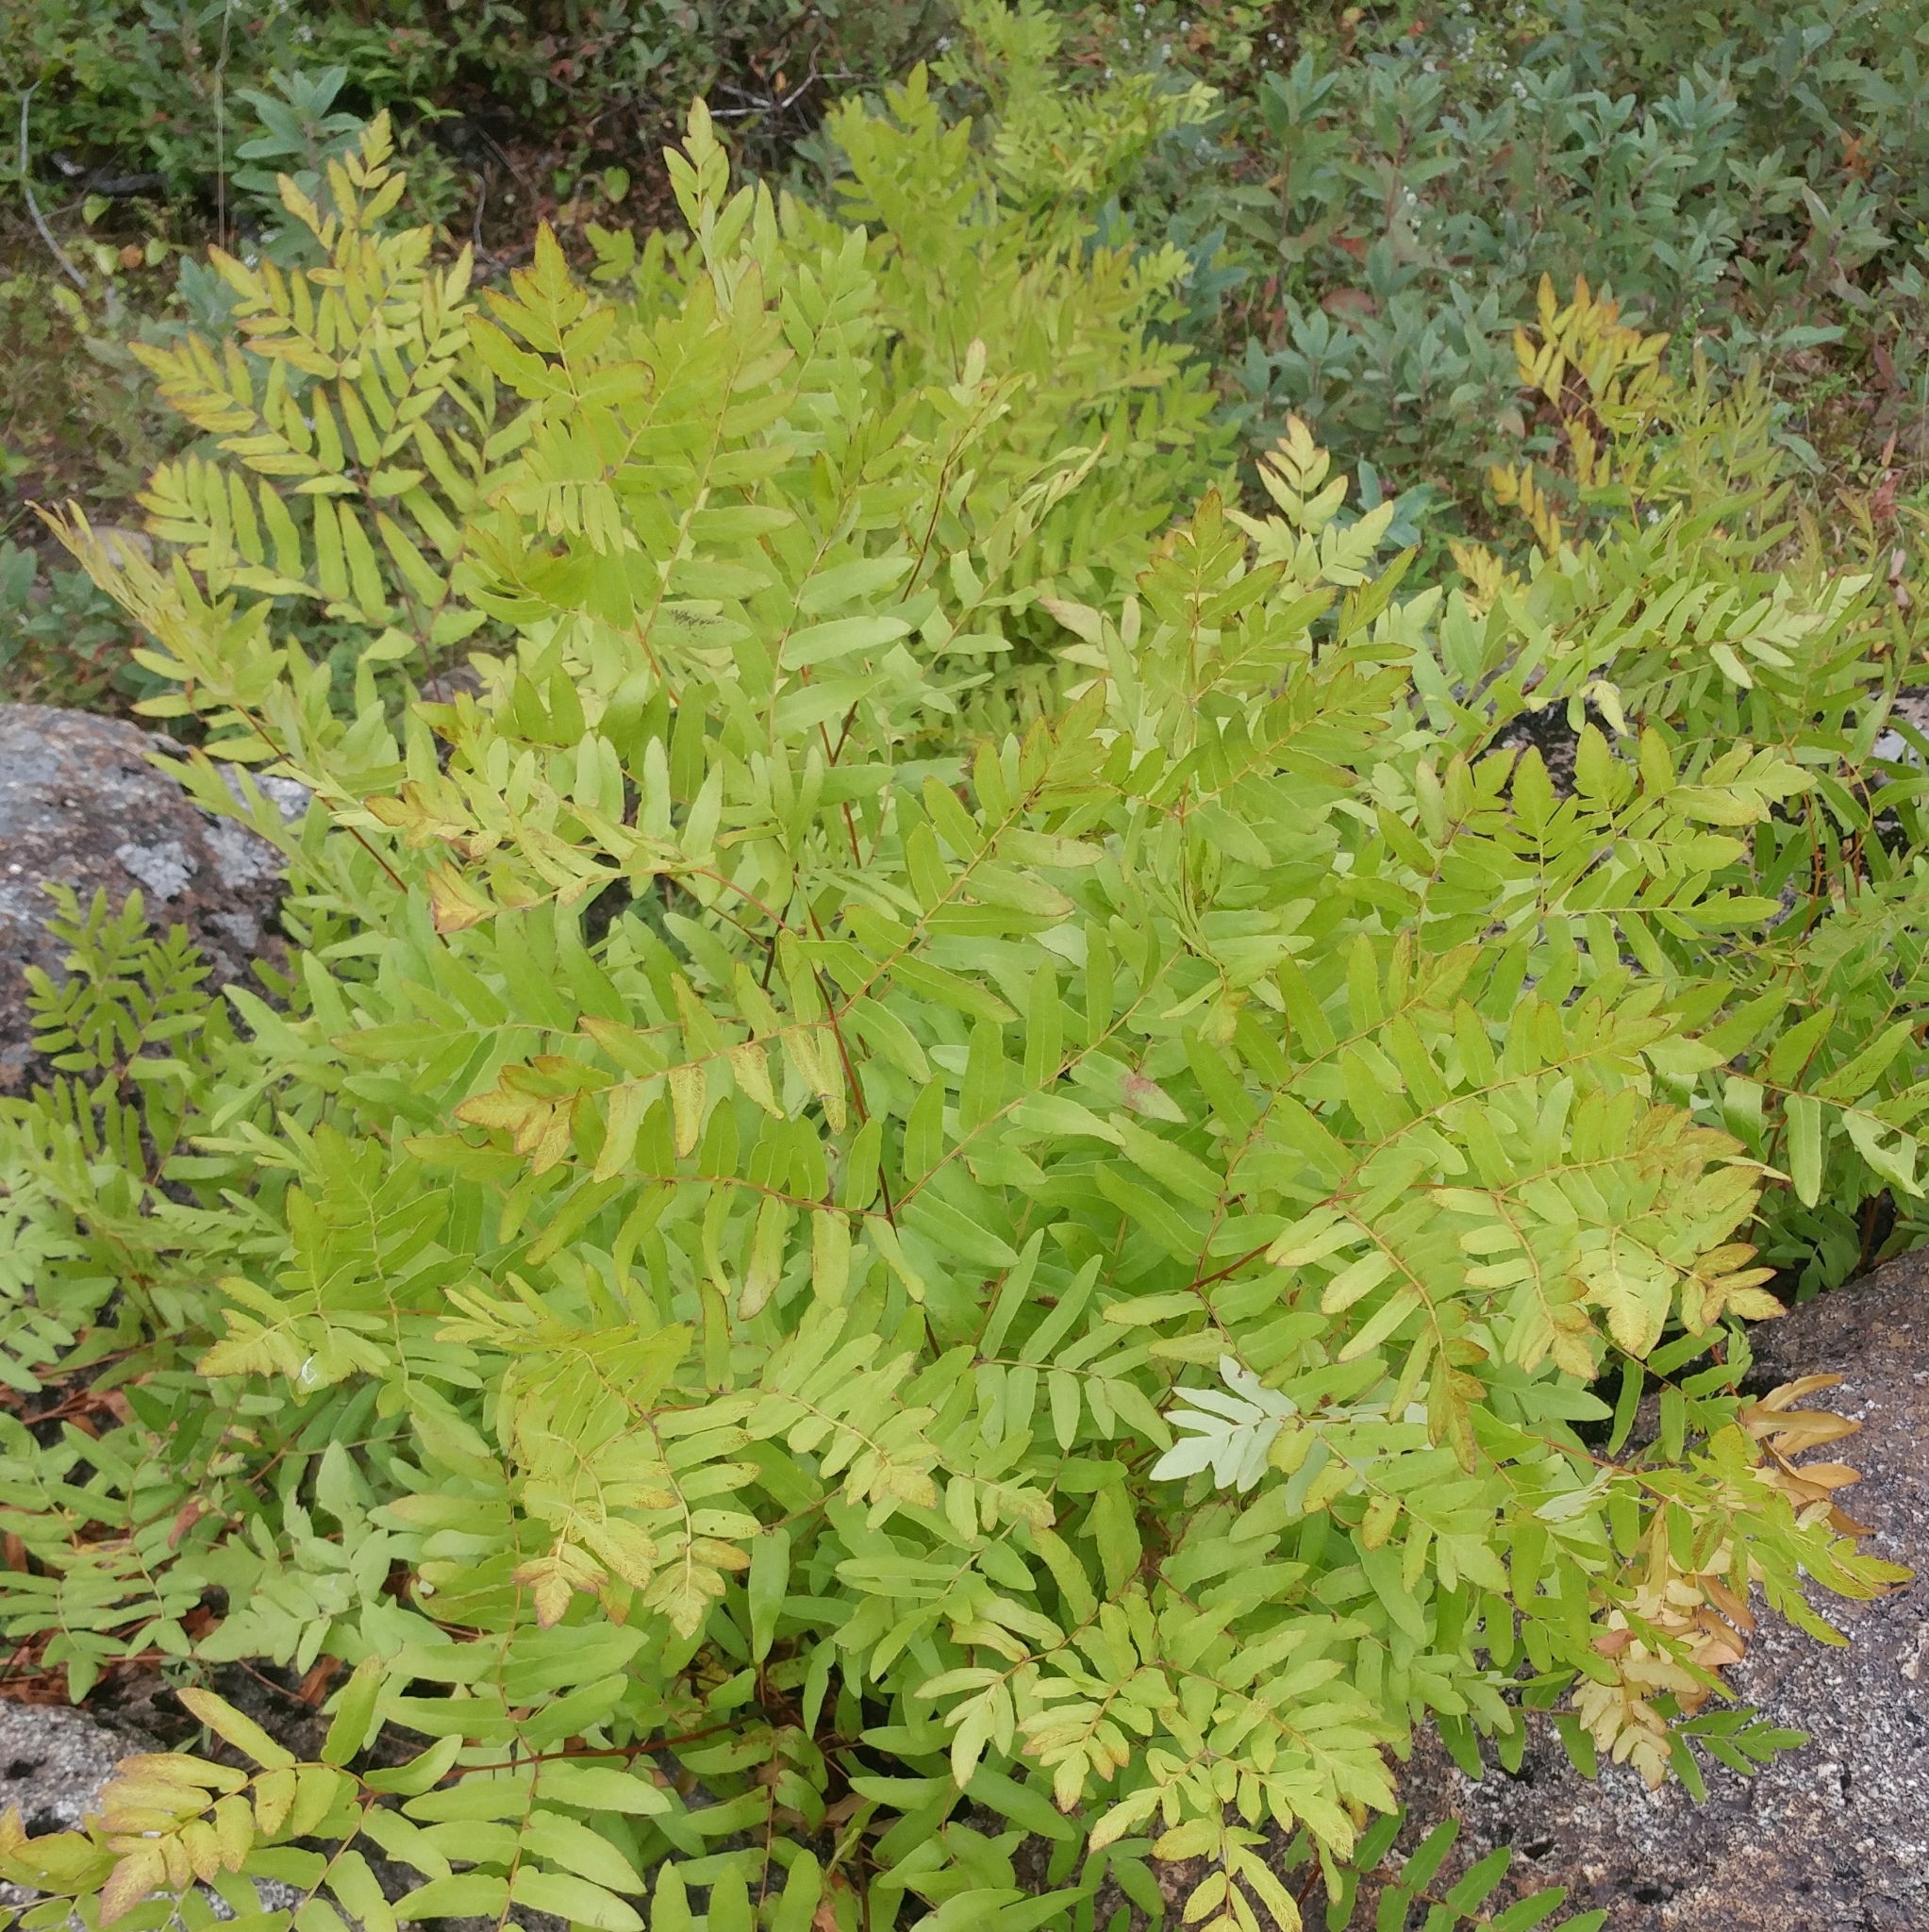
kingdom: Plantae
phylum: Tracheophyta
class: Polypodiopsida
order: Osmundales
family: Osmundaceae
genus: Osmunda
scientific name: Osmunda spectabilis
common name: American royal fern
